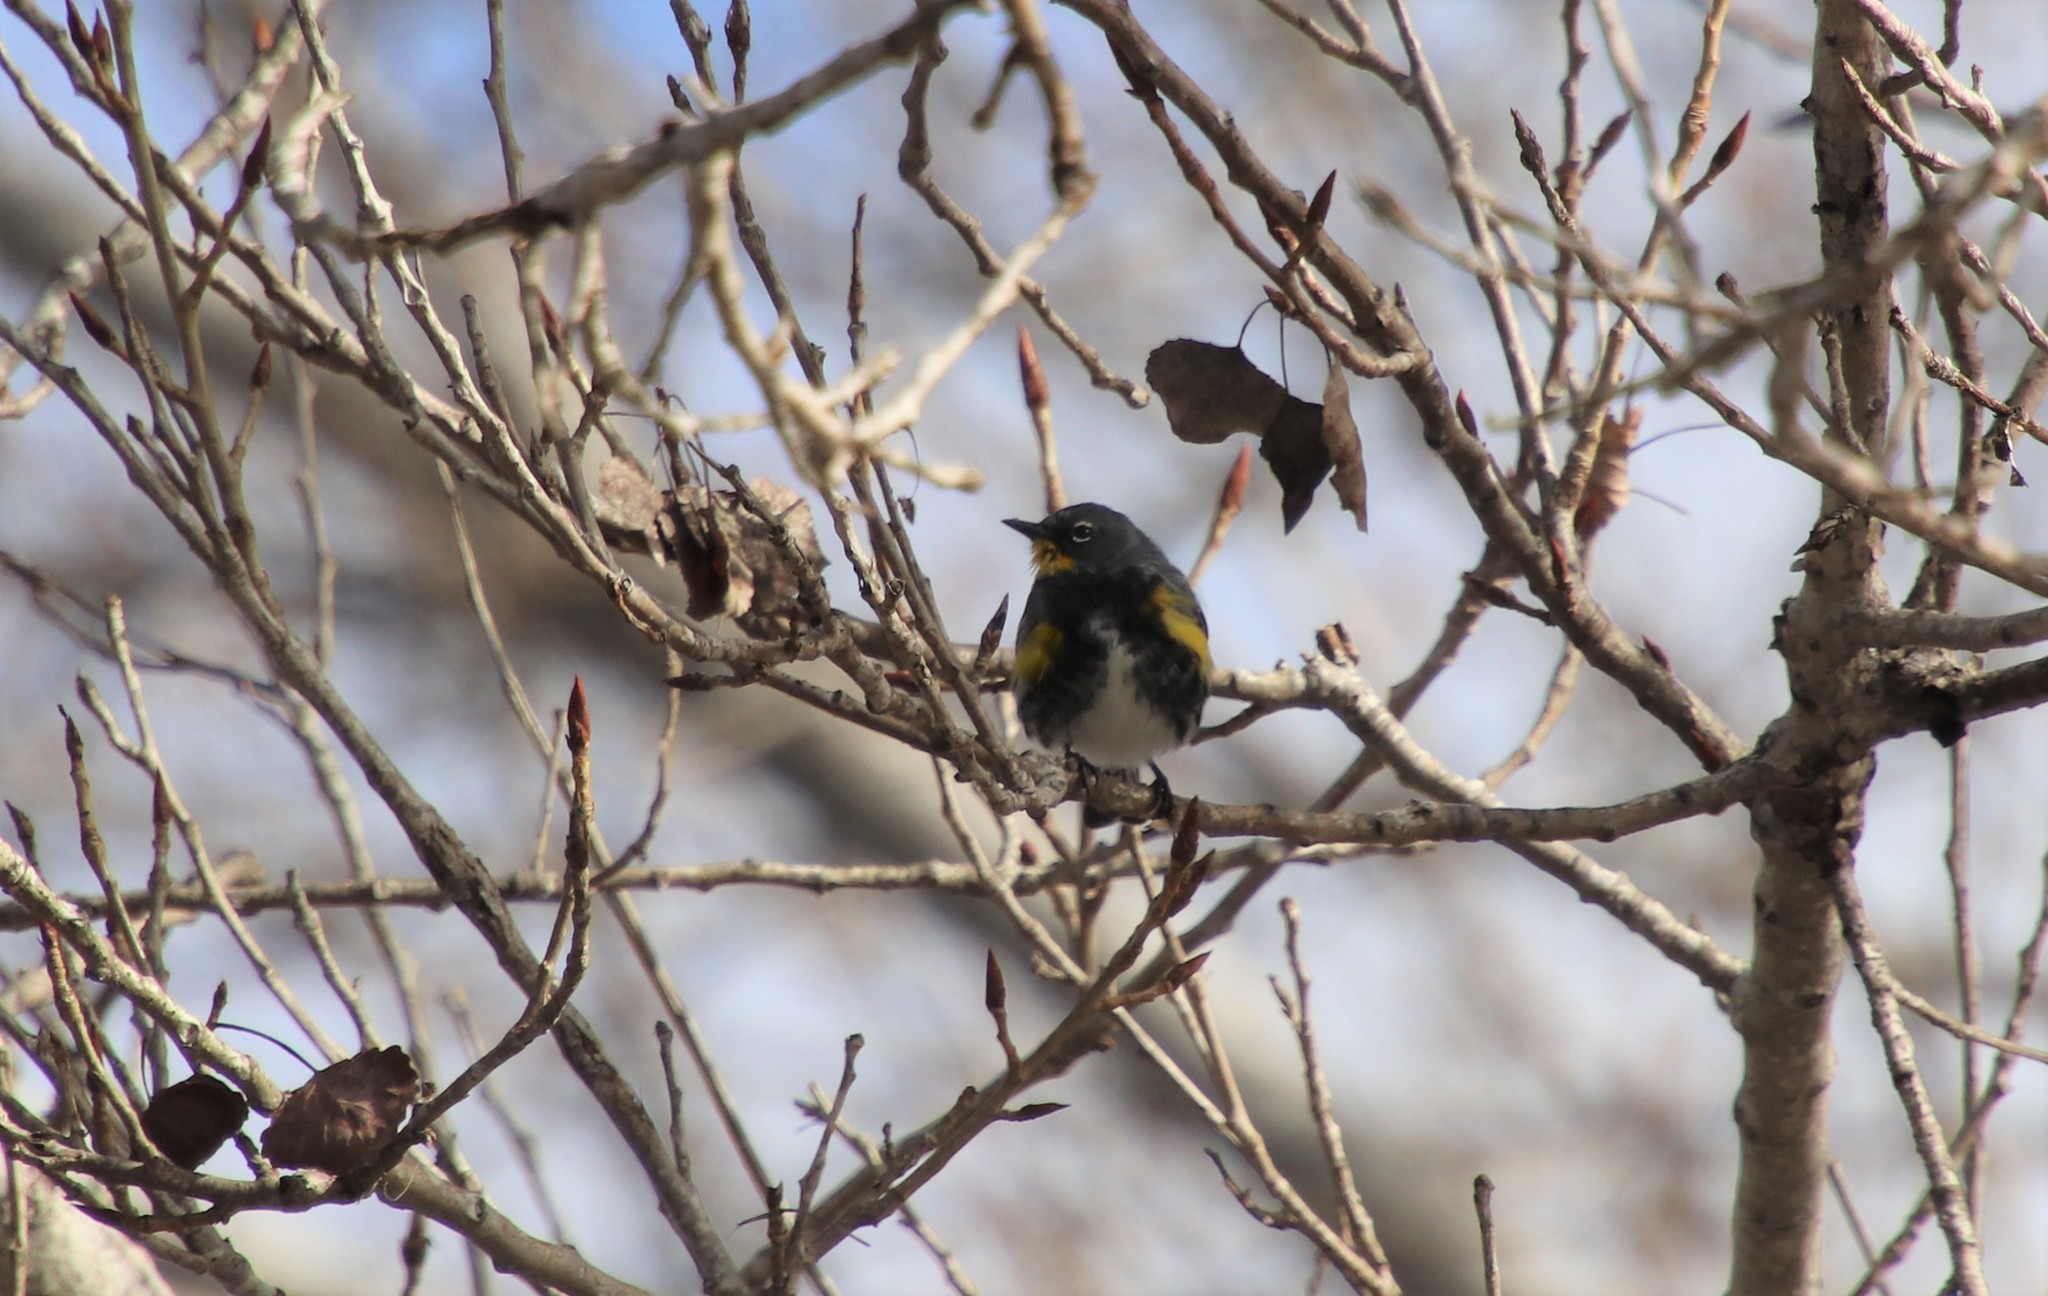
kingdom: Animalia
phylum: Chordata
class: Aves
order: Passeriformes
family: Parulidae
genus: Setophaga
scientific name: Setophaga auduboni
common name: Audubon's warbler
